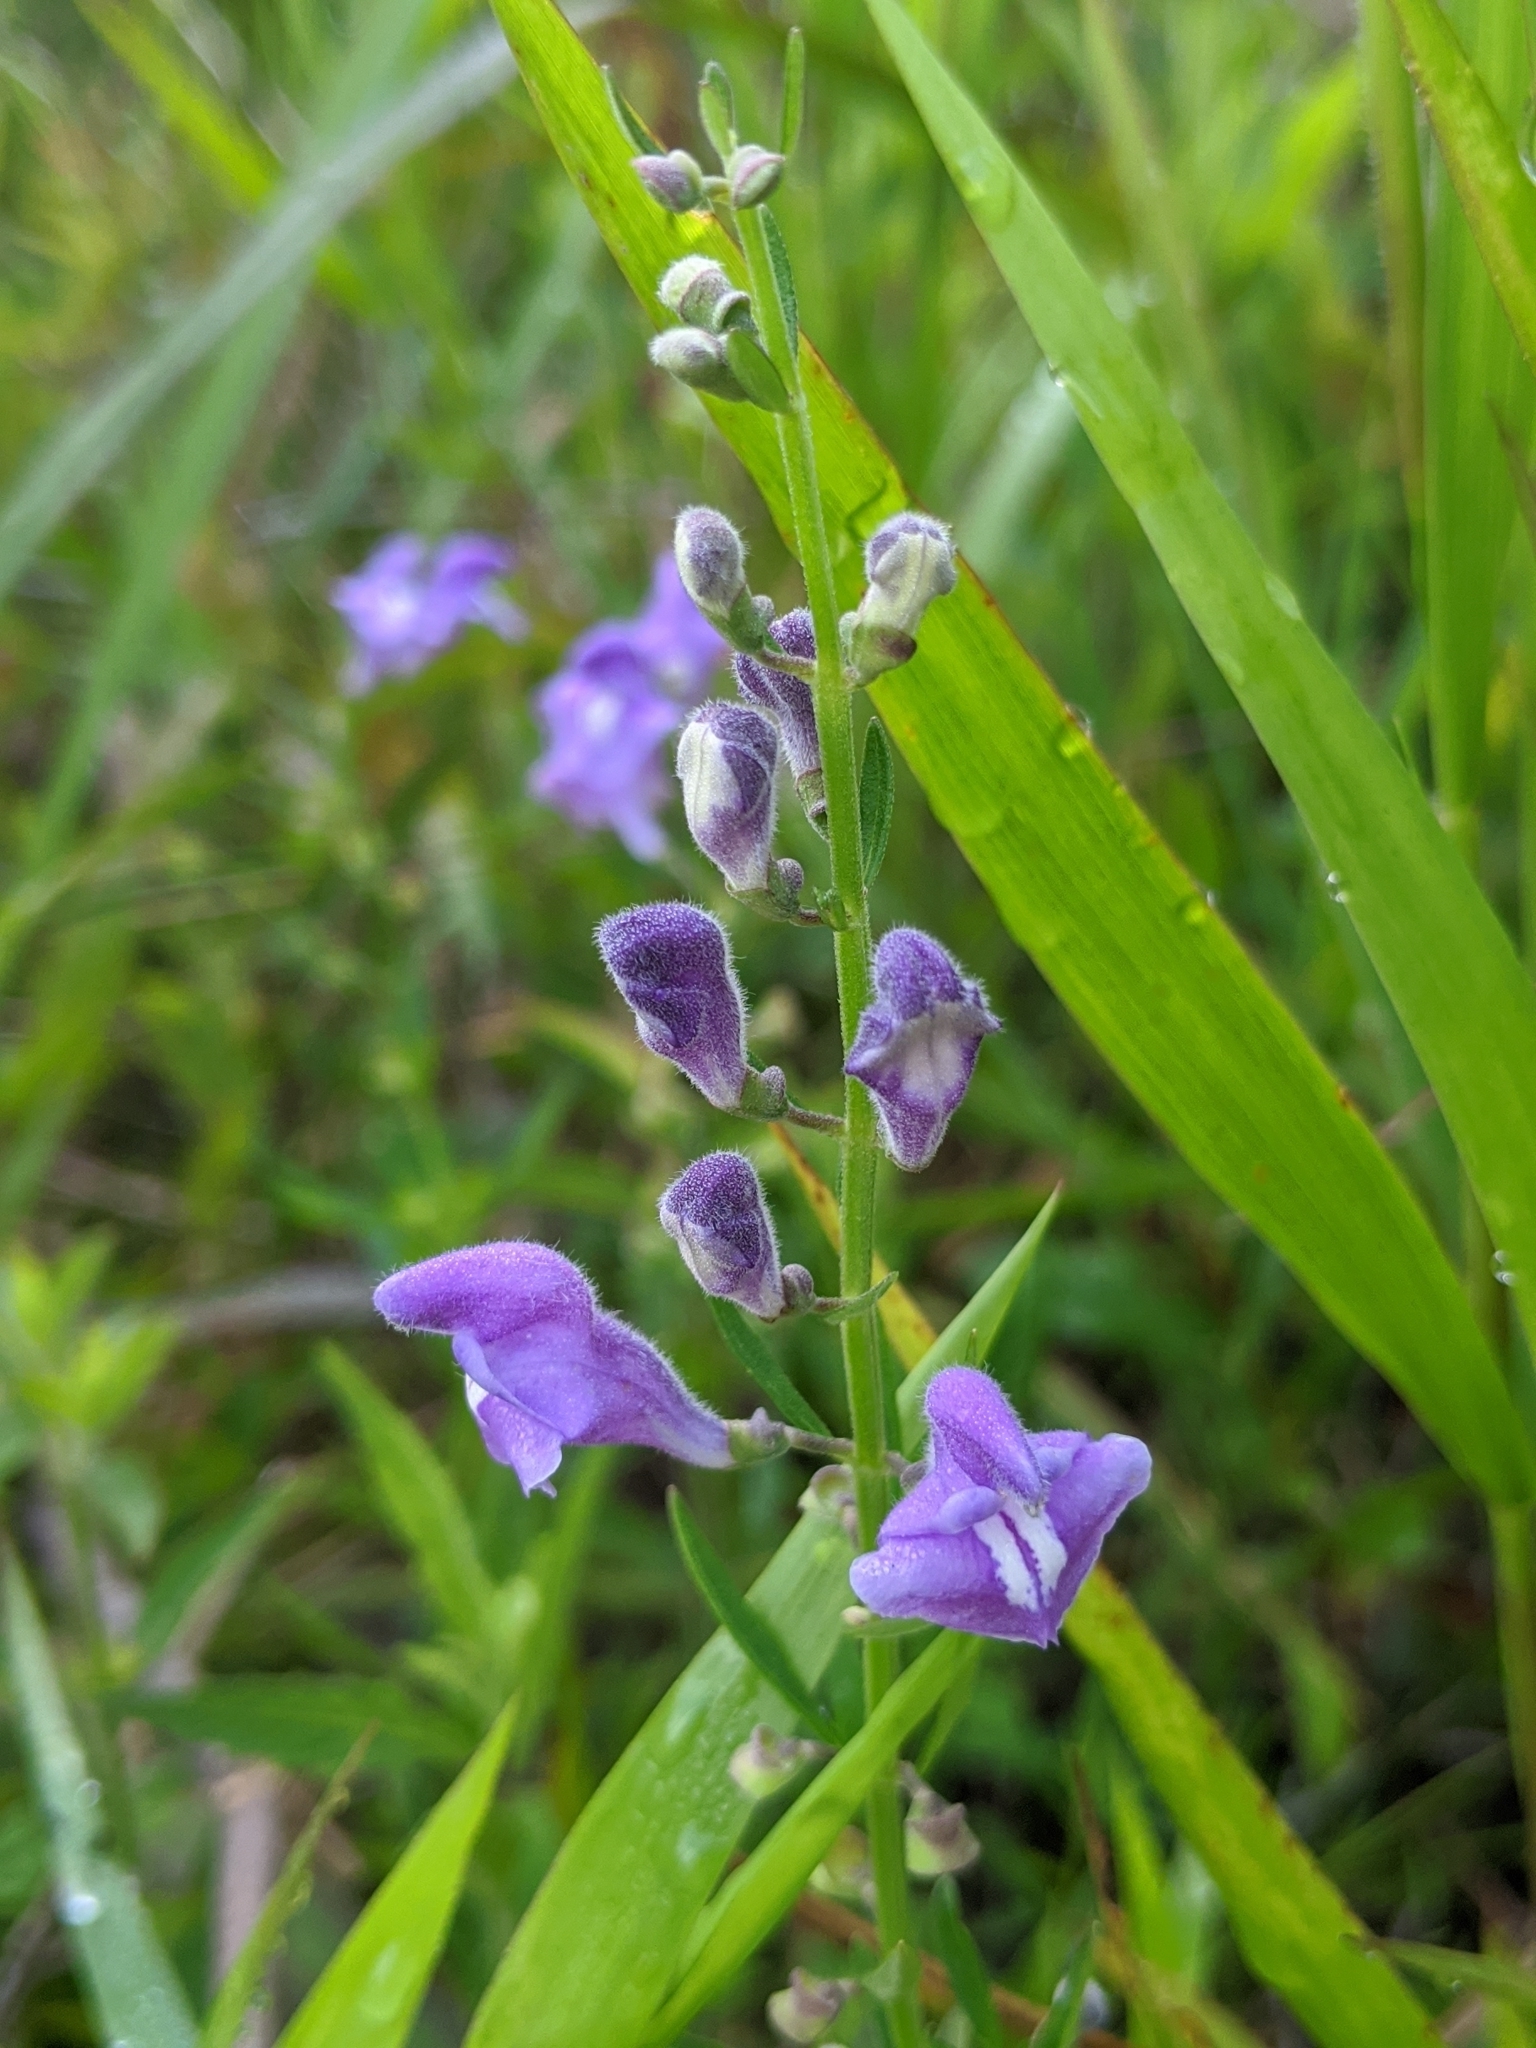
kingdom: Plantae
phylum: Tracheophyta
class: Magnoliopsida
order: Lamiales
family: Lamiaceae
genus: Scutellaria
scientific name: Scutellaria integrifolia
